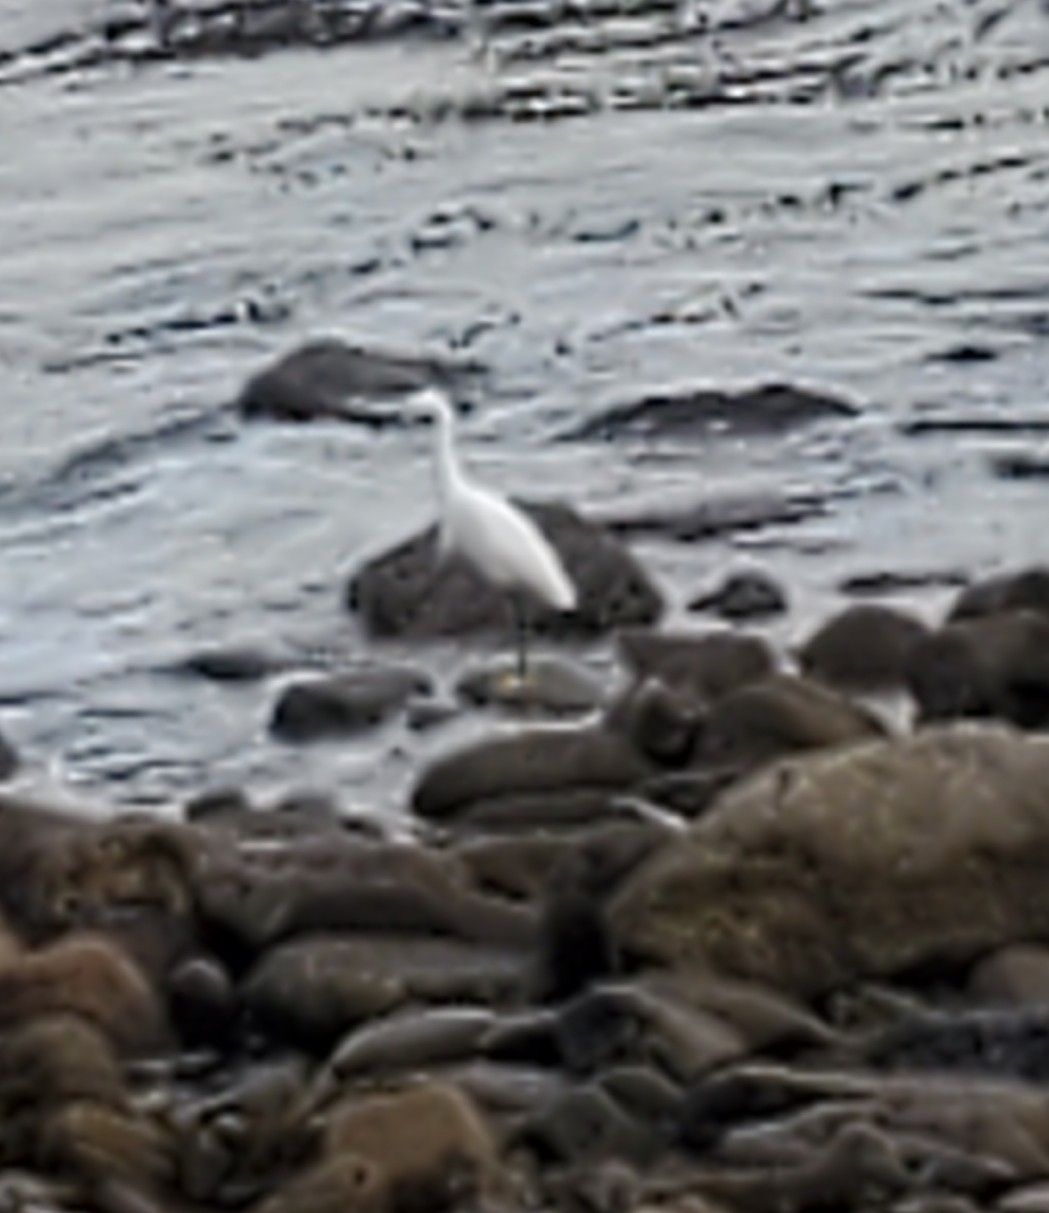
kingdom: Animalia
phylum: Chordata
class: Aves
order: Pelecaniformes
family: Ardeidae
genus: Egretta
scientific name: Egretta thula
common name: Snowy egret
